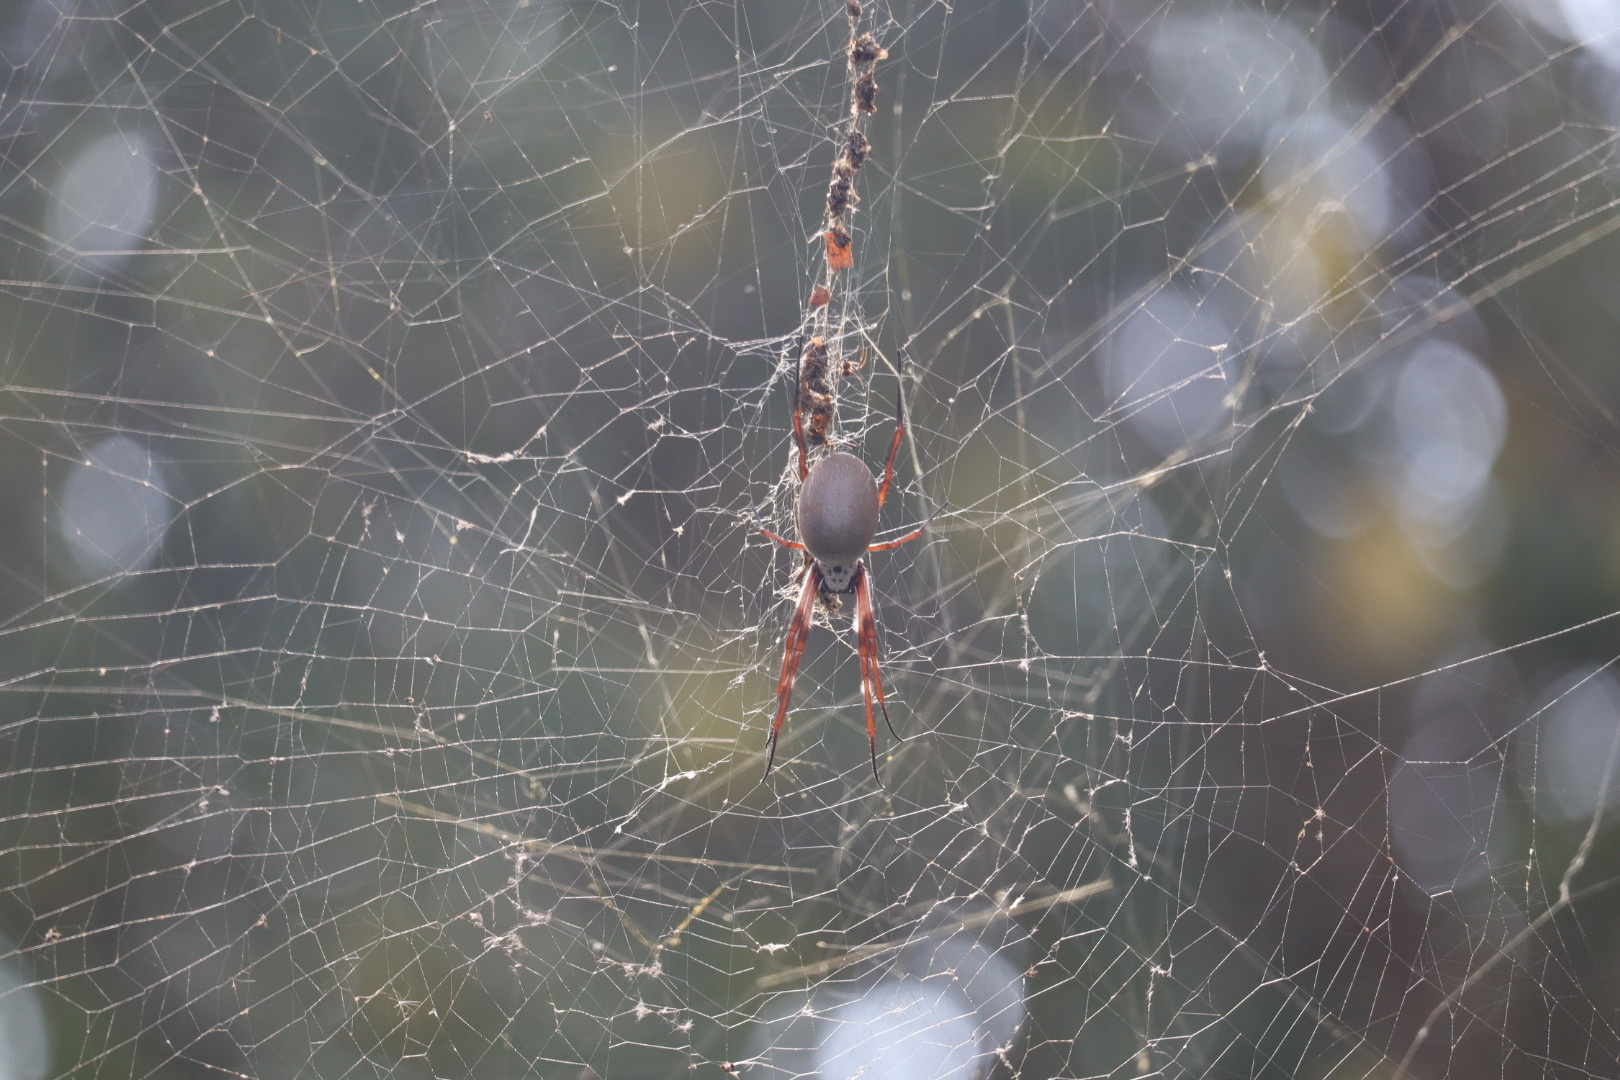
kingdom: Animalia
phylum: Arthropoda
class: Arachnida
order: Araneae
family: Araneidae
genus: Trichonephila
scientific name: Trichonephila edulis
